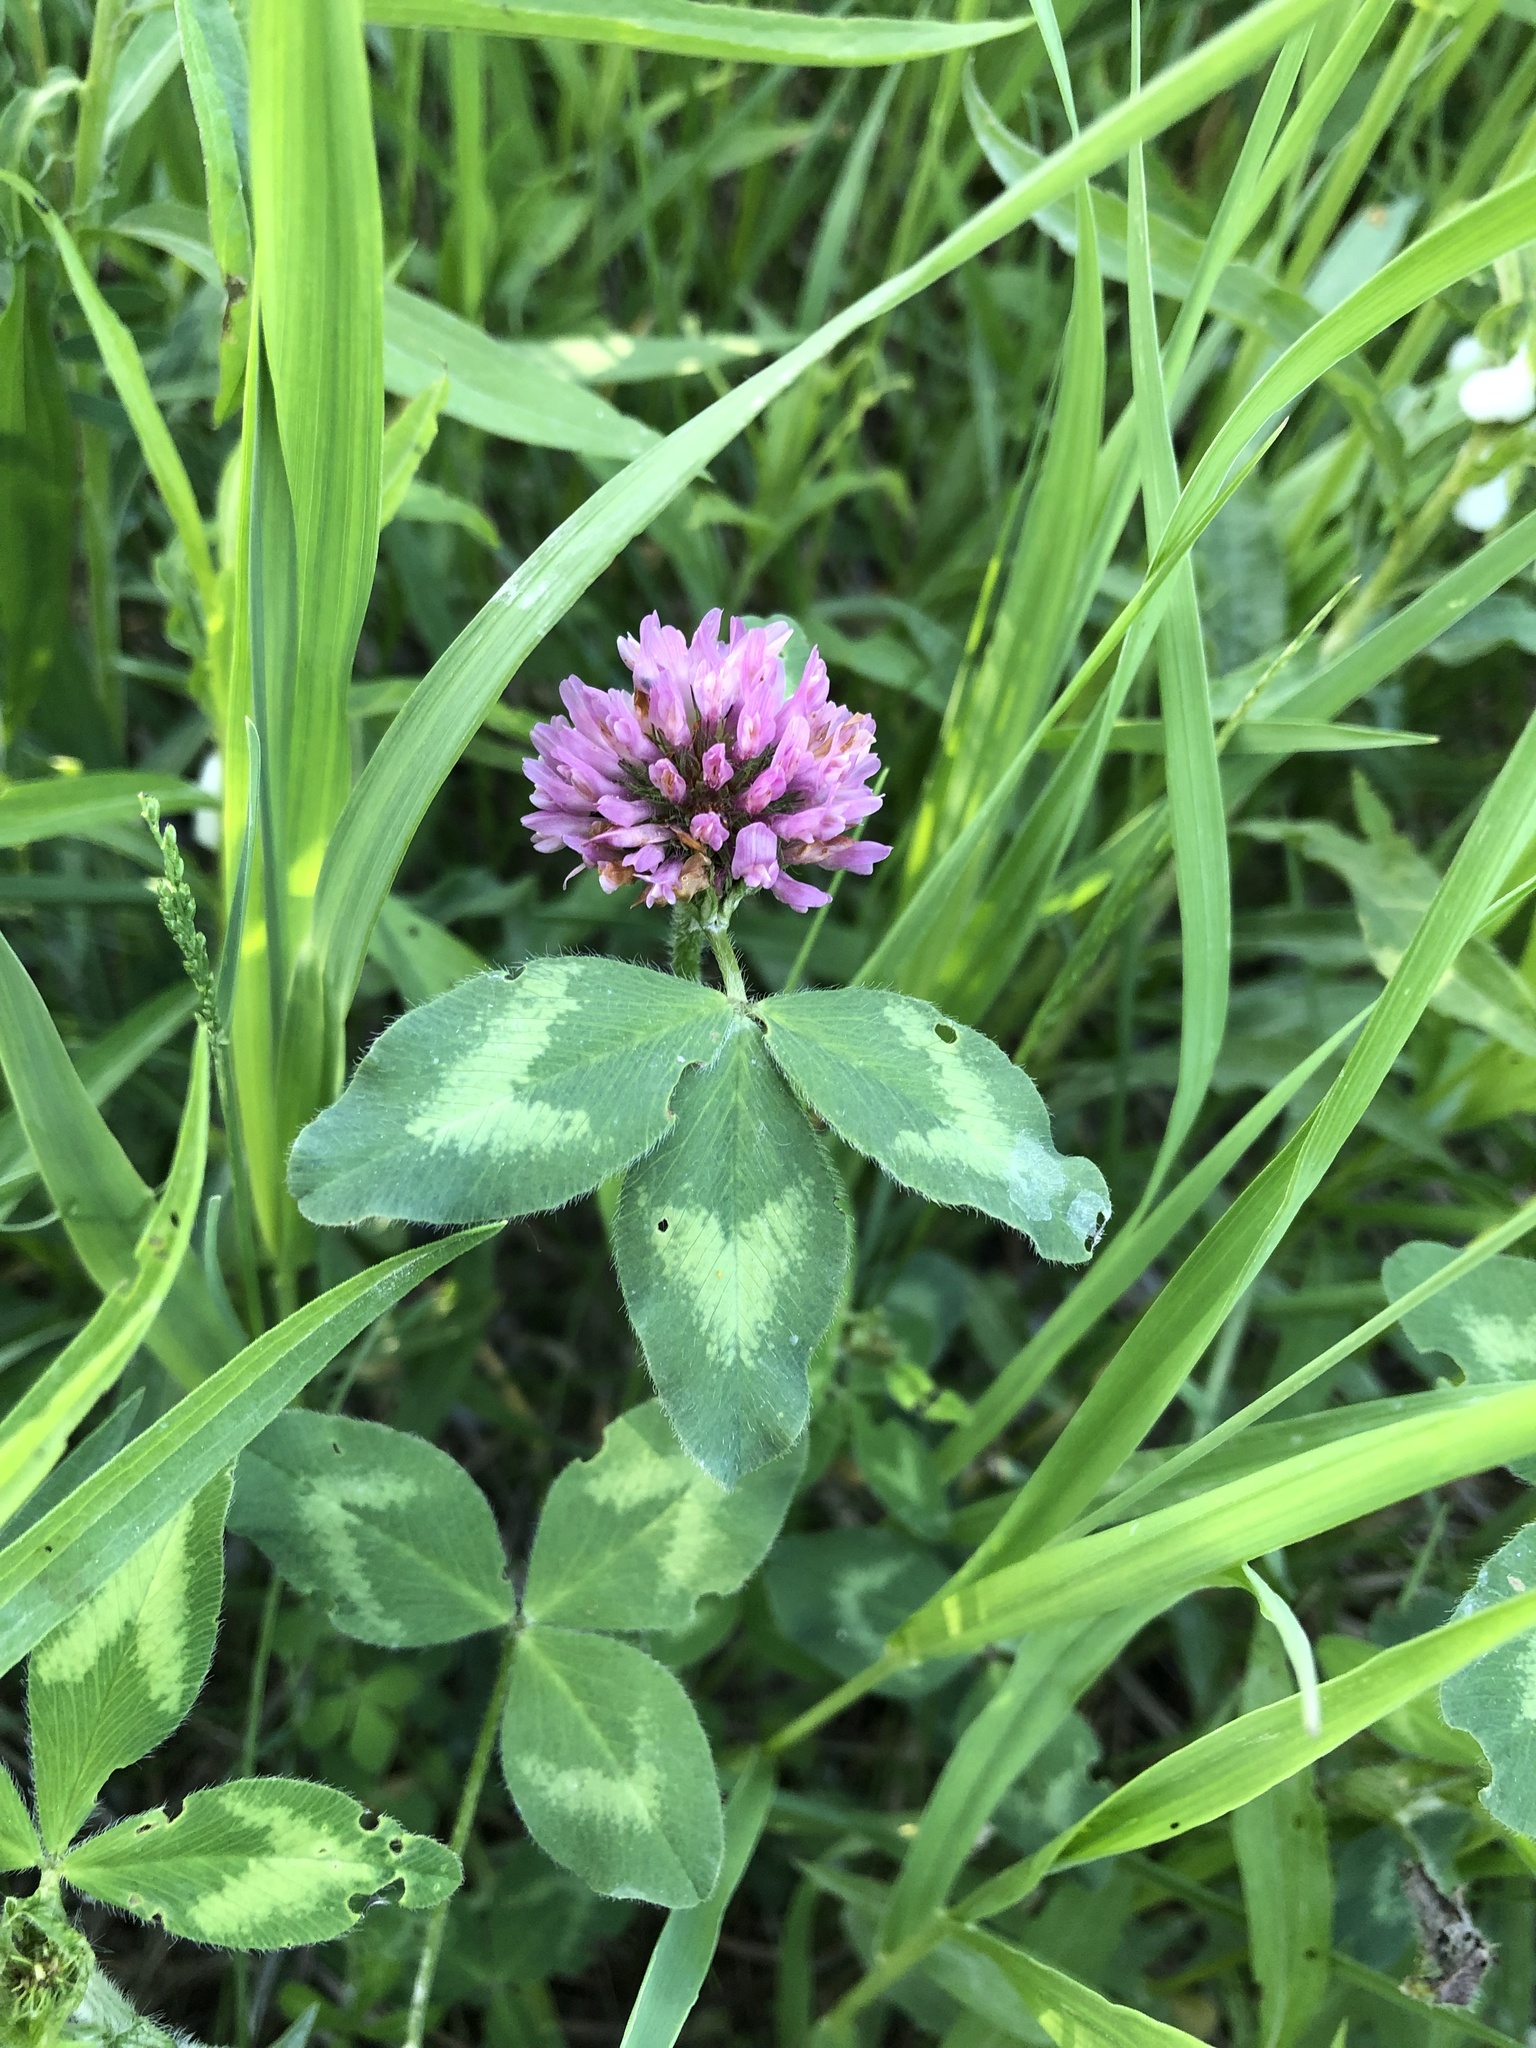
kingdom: Plantae
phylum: Tracheophyta
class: Magnoliopsida
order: Fabales
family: Fabaceae
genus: Trifolium
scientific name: Trifolium pratense
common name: Red clover
